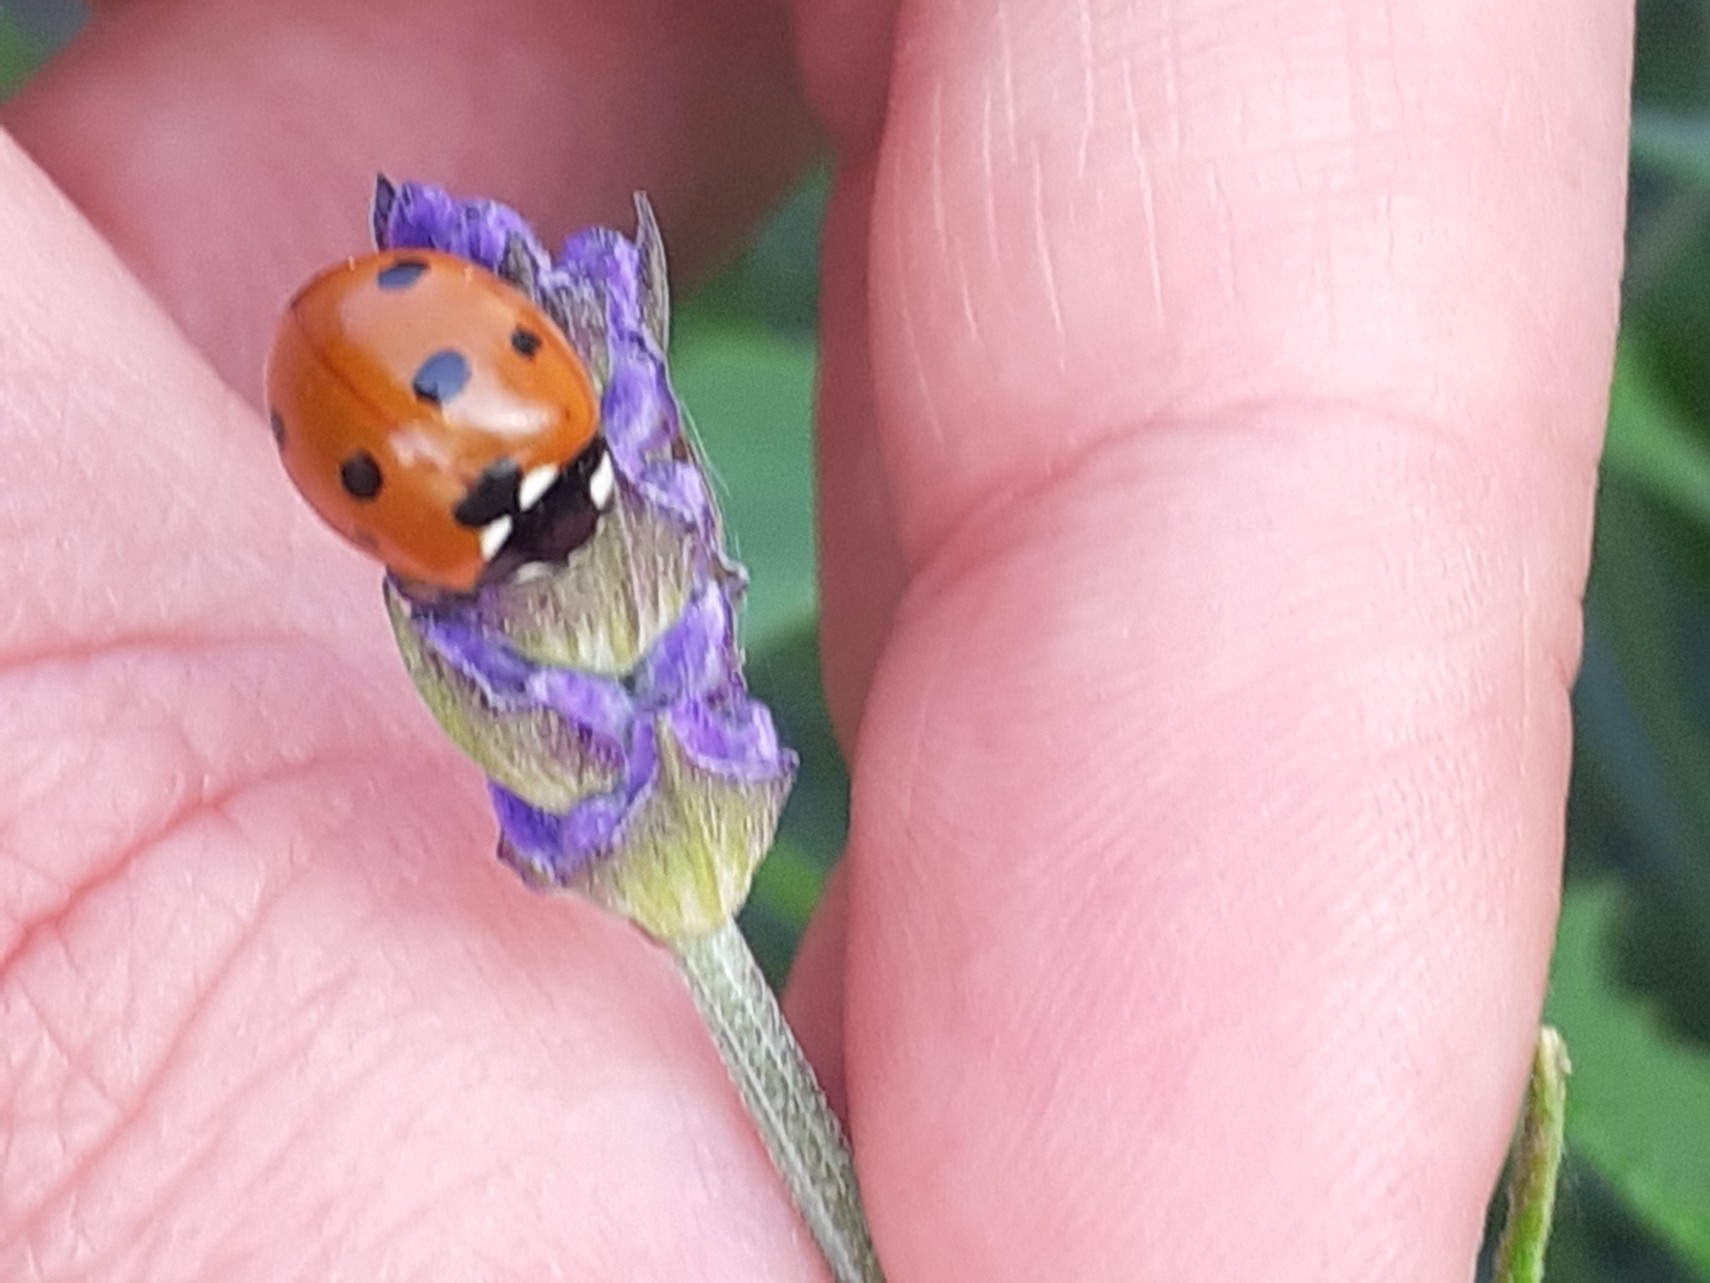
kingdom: Animalia
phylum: Arthropoda
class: Insecta
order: Coleoptera
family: Coccinellidae
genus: Coccinella
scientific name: Coccinella septempunctata
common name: Sevenspotted lady beetle
